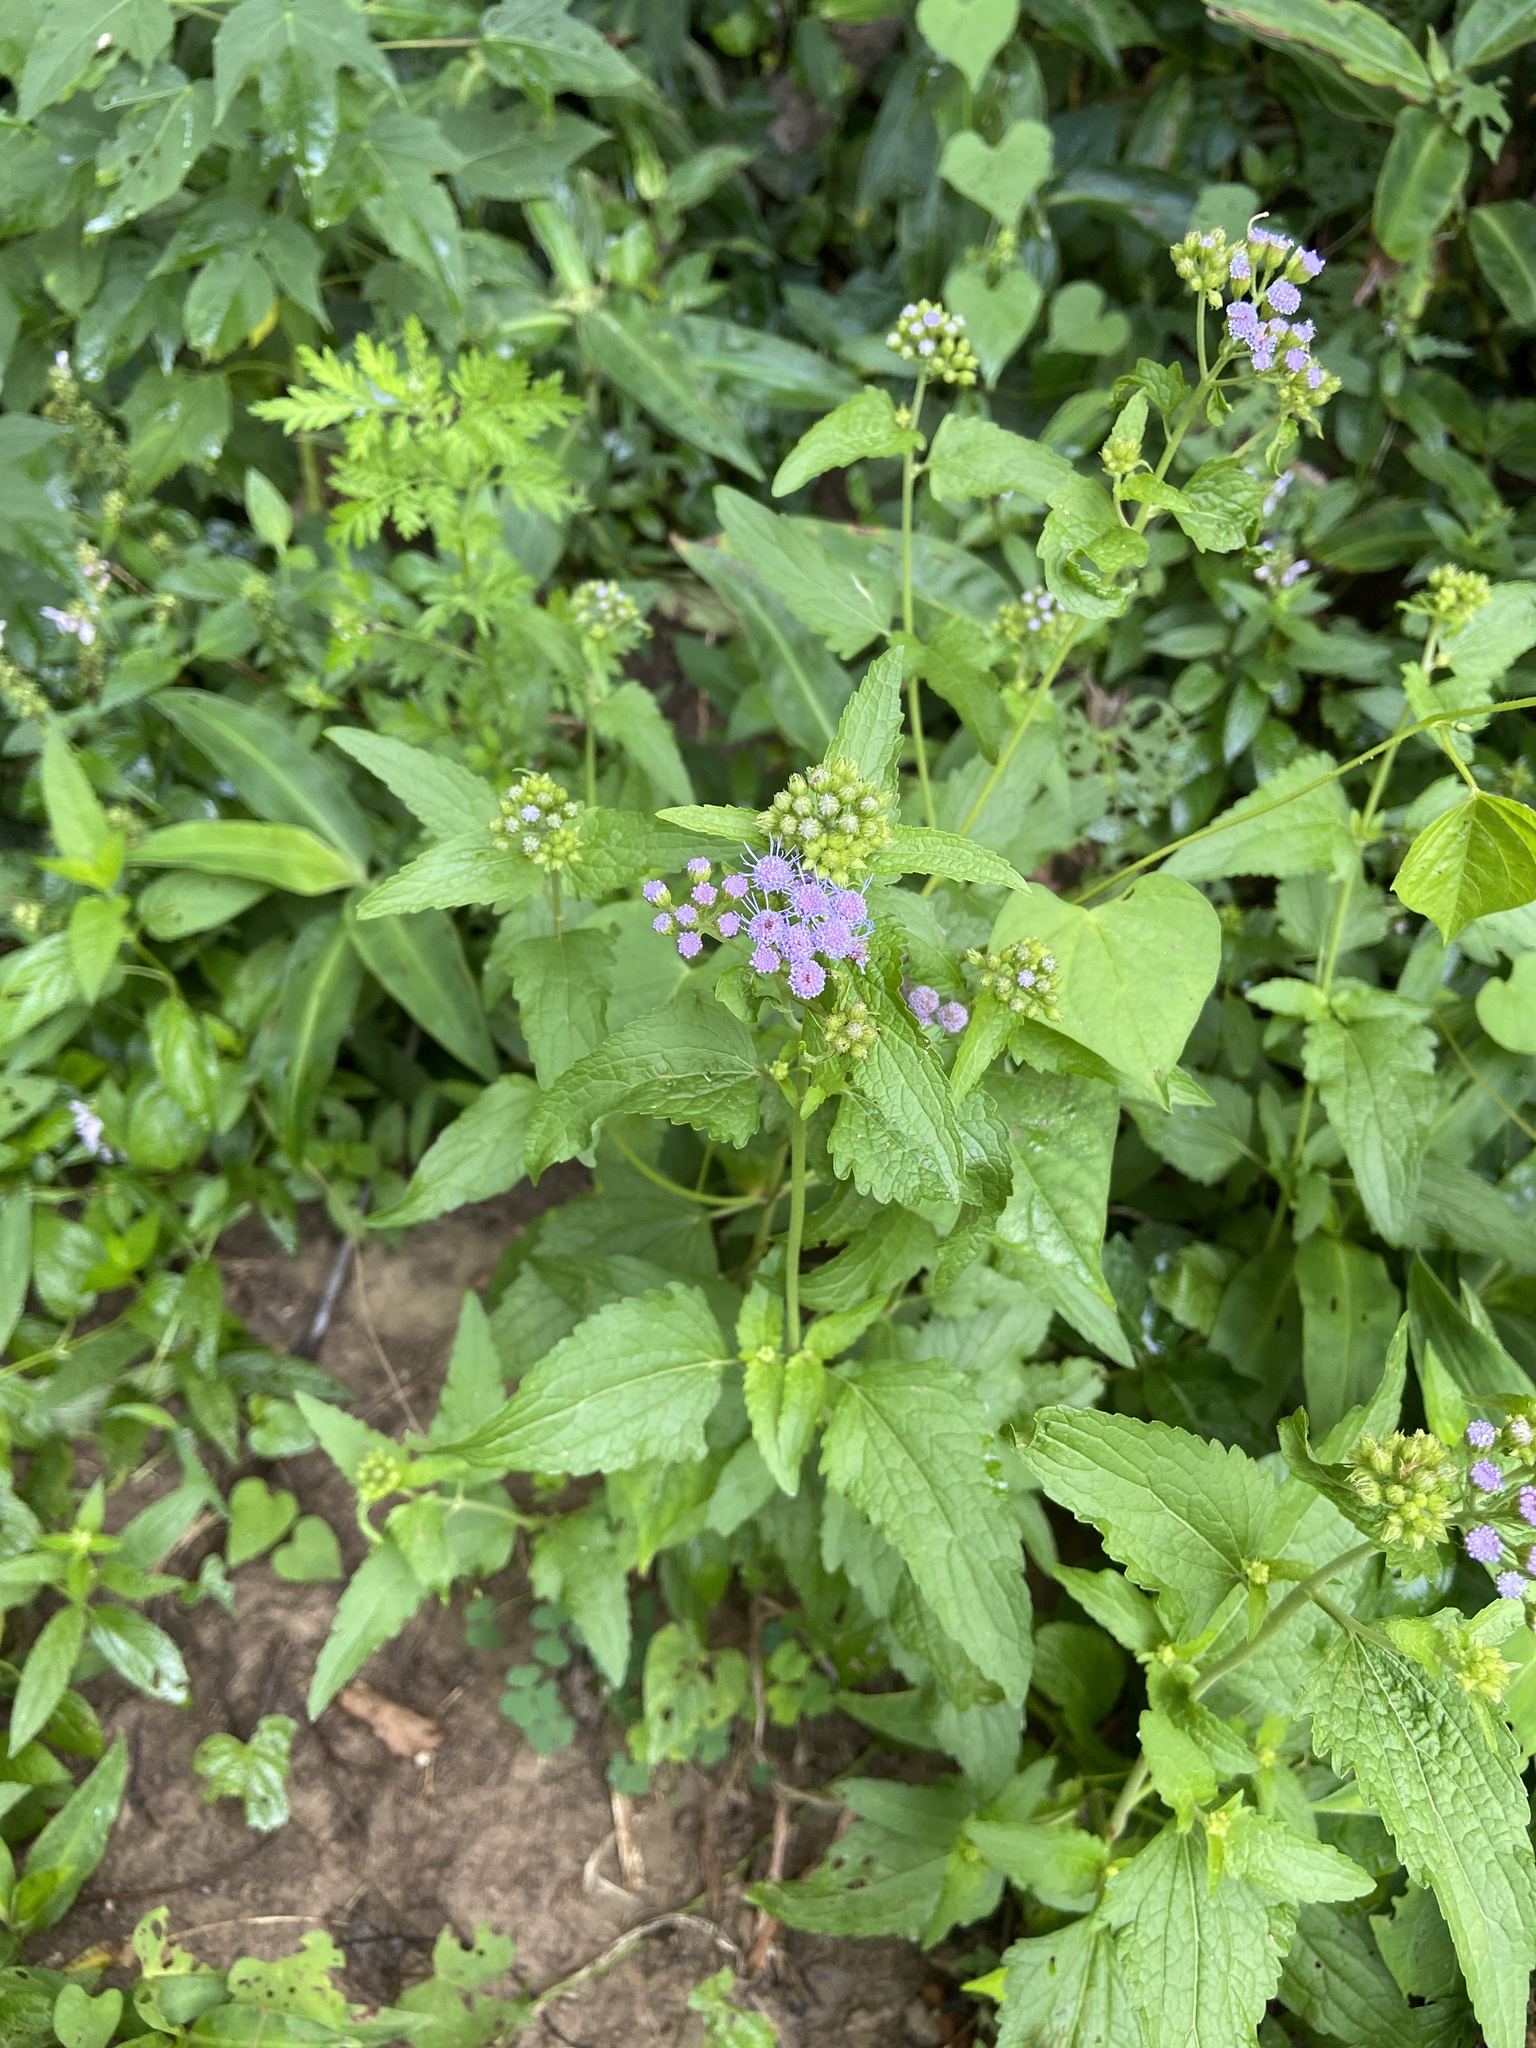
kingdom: Plantae
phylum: Tracheophyta
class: Magnoliopsida
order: Asterales
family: Asteraceae
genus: Conoclinium
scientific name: Conoclinium coelestinum
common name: Blue mistflower
